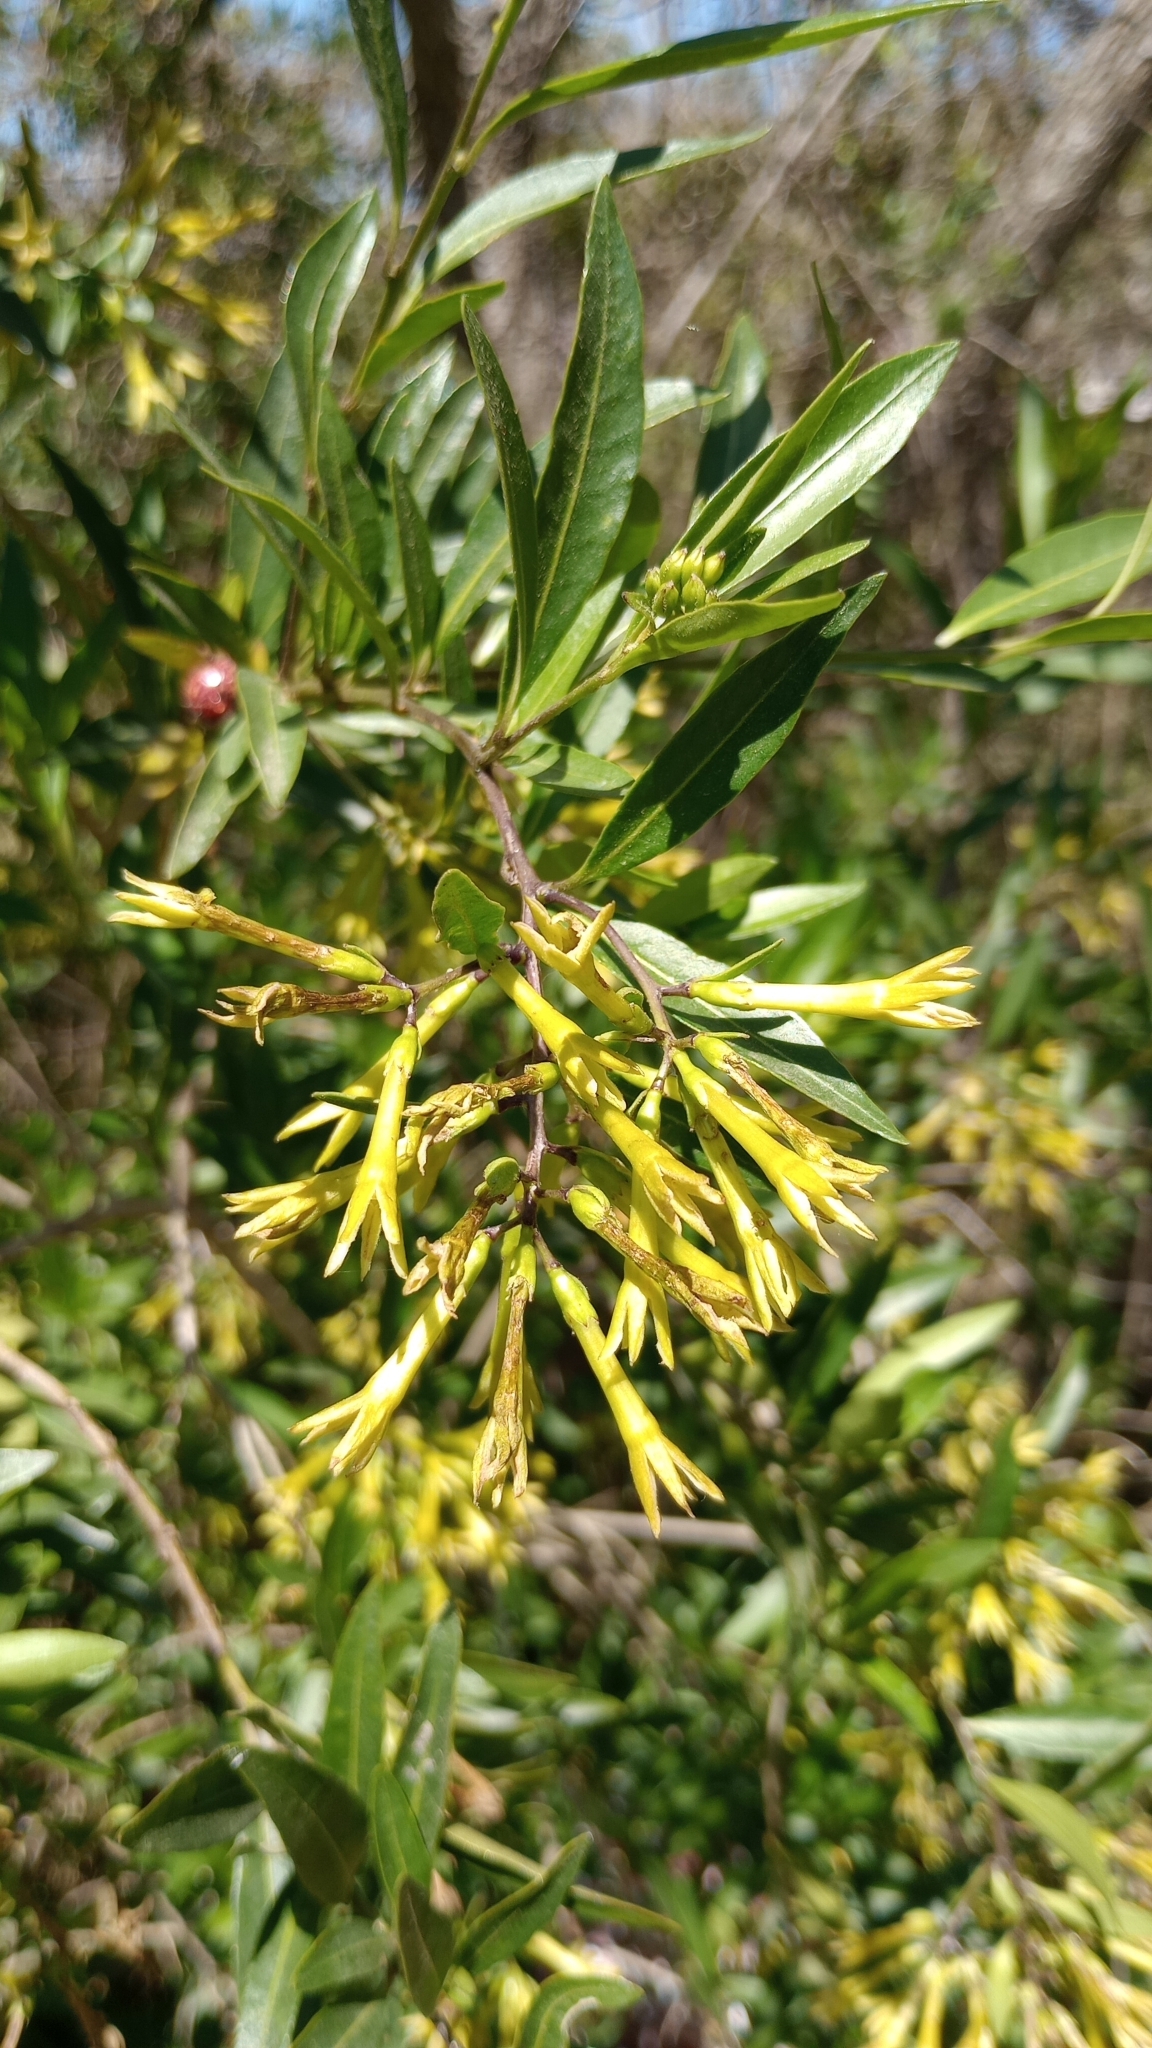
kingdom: Plantae
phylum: Tracheophyta
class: Magnoliopsida
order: Solanales
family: Solanaceae
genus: Cestrum
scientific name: Cestrum parqui
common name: Chilean cestrum
